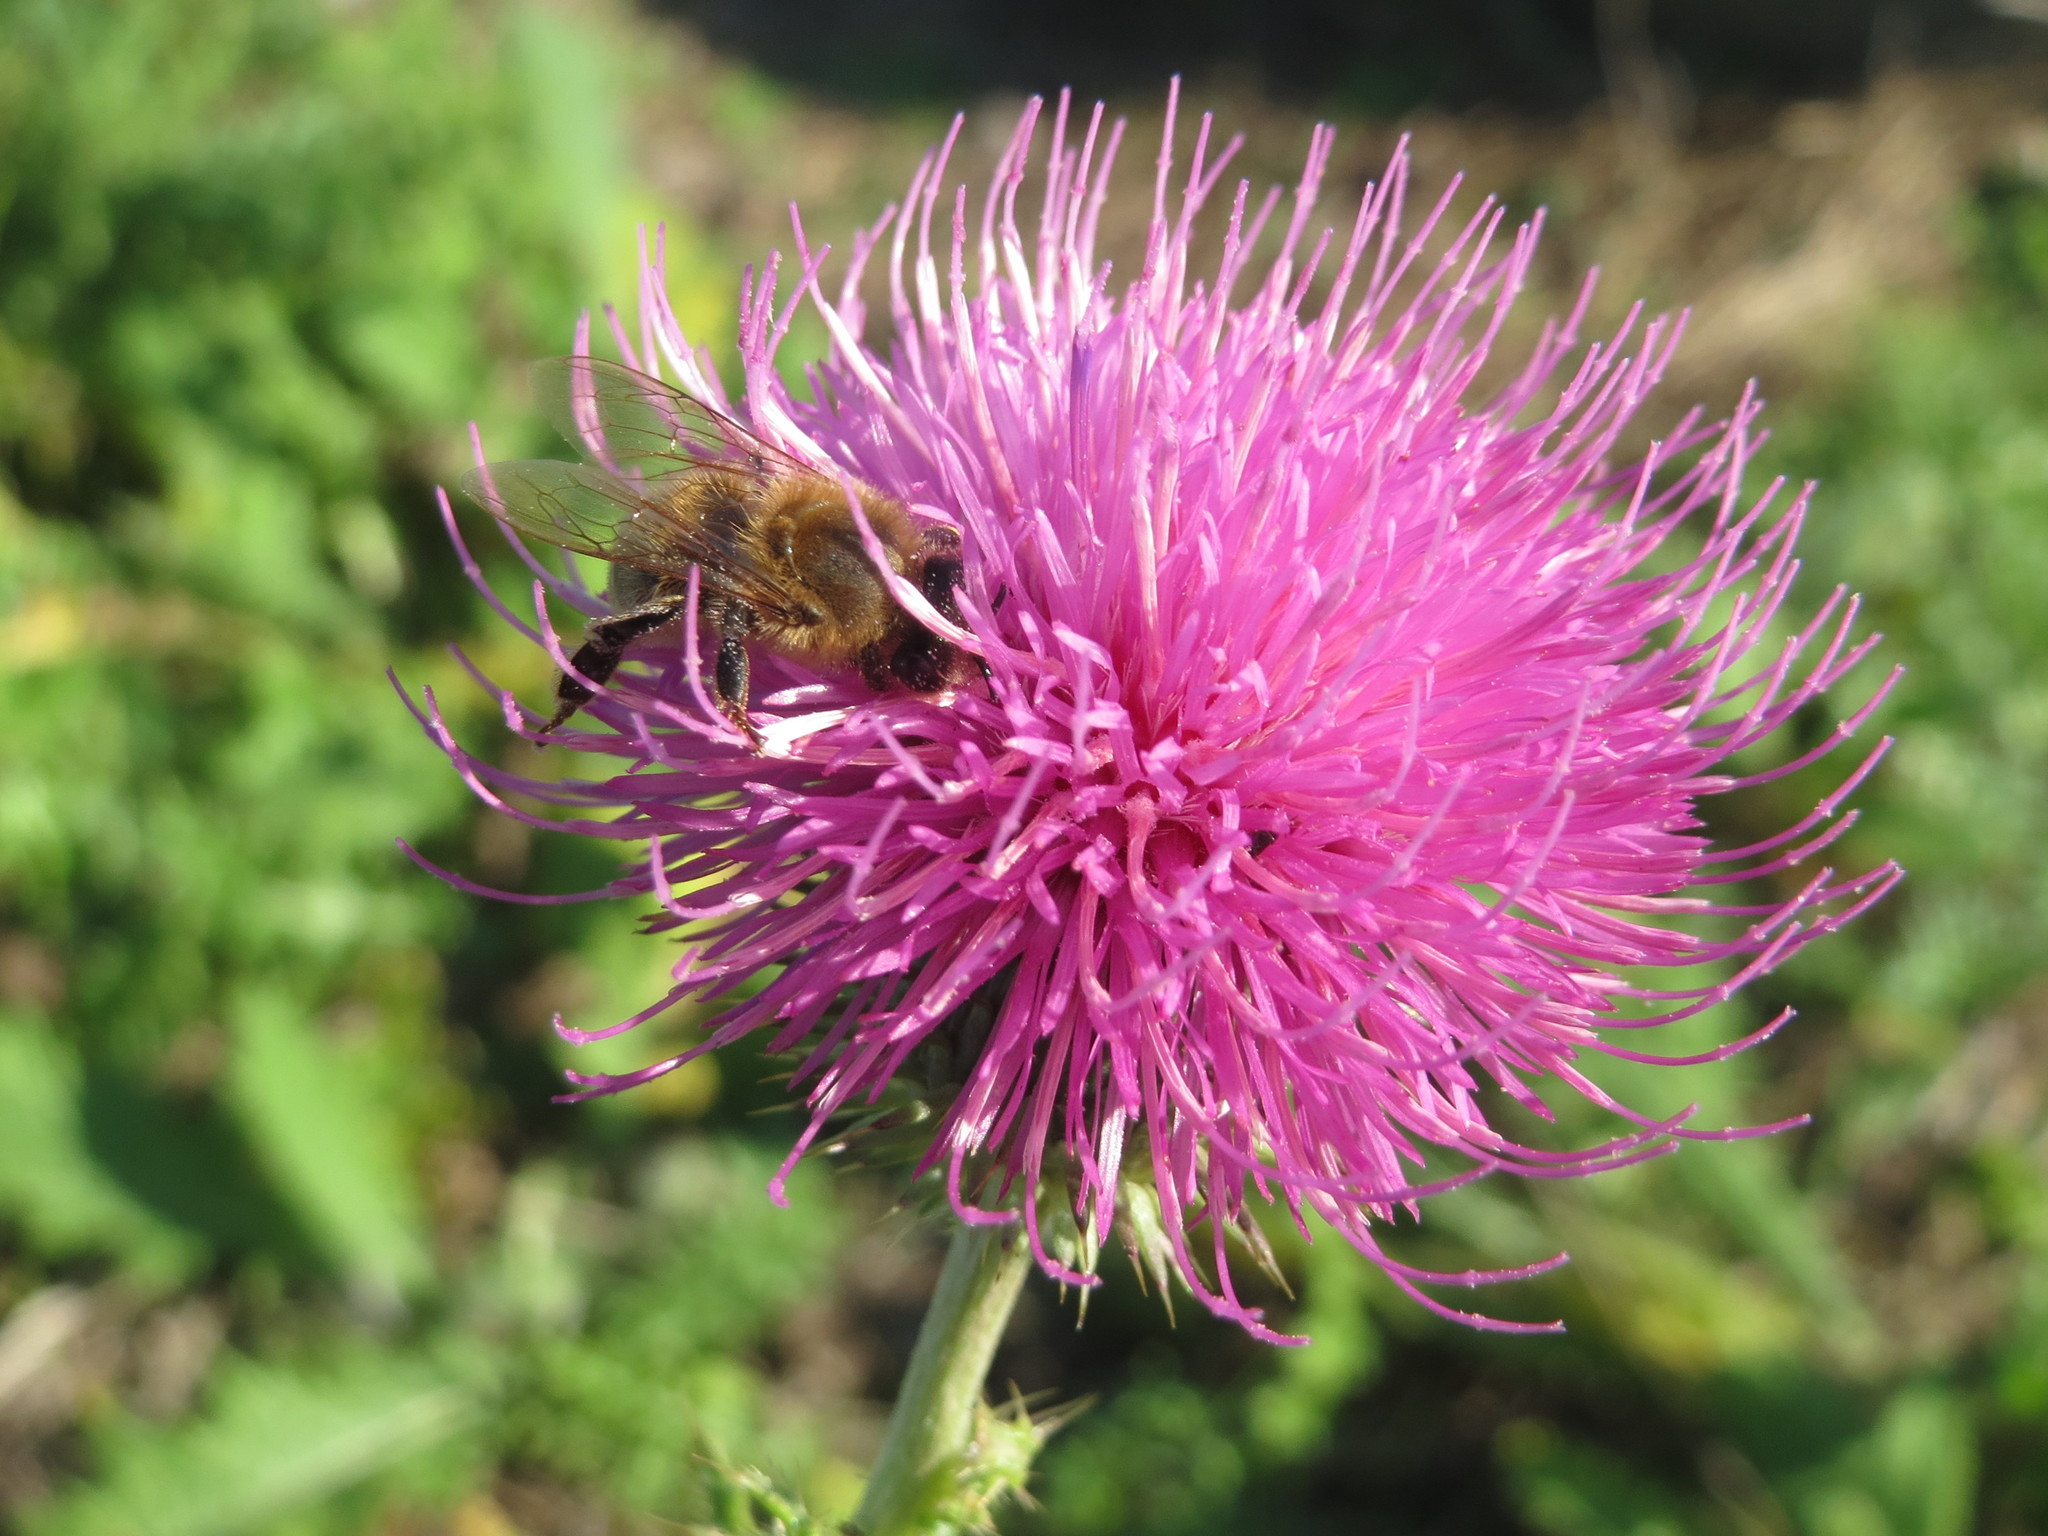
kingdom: Plantae
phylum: Tracheophyta
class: Magnoliopsida
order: Asterales
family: Asteraceae
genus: Carduus
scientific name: Carduus acanthoides
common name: Plumeless thistle
